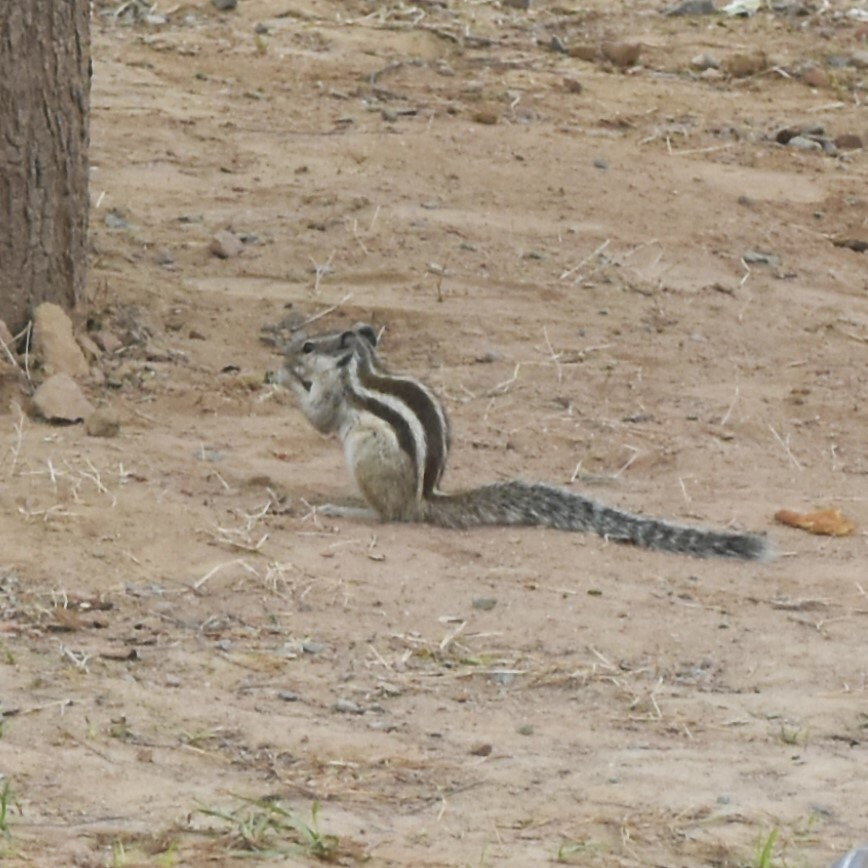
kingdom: Animalia
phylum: Chordata
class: Mammalia
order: Rodentia
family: Sciuridae
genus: Funambulus
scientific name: Funambulus pennantii
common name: Northern palm squirrel
